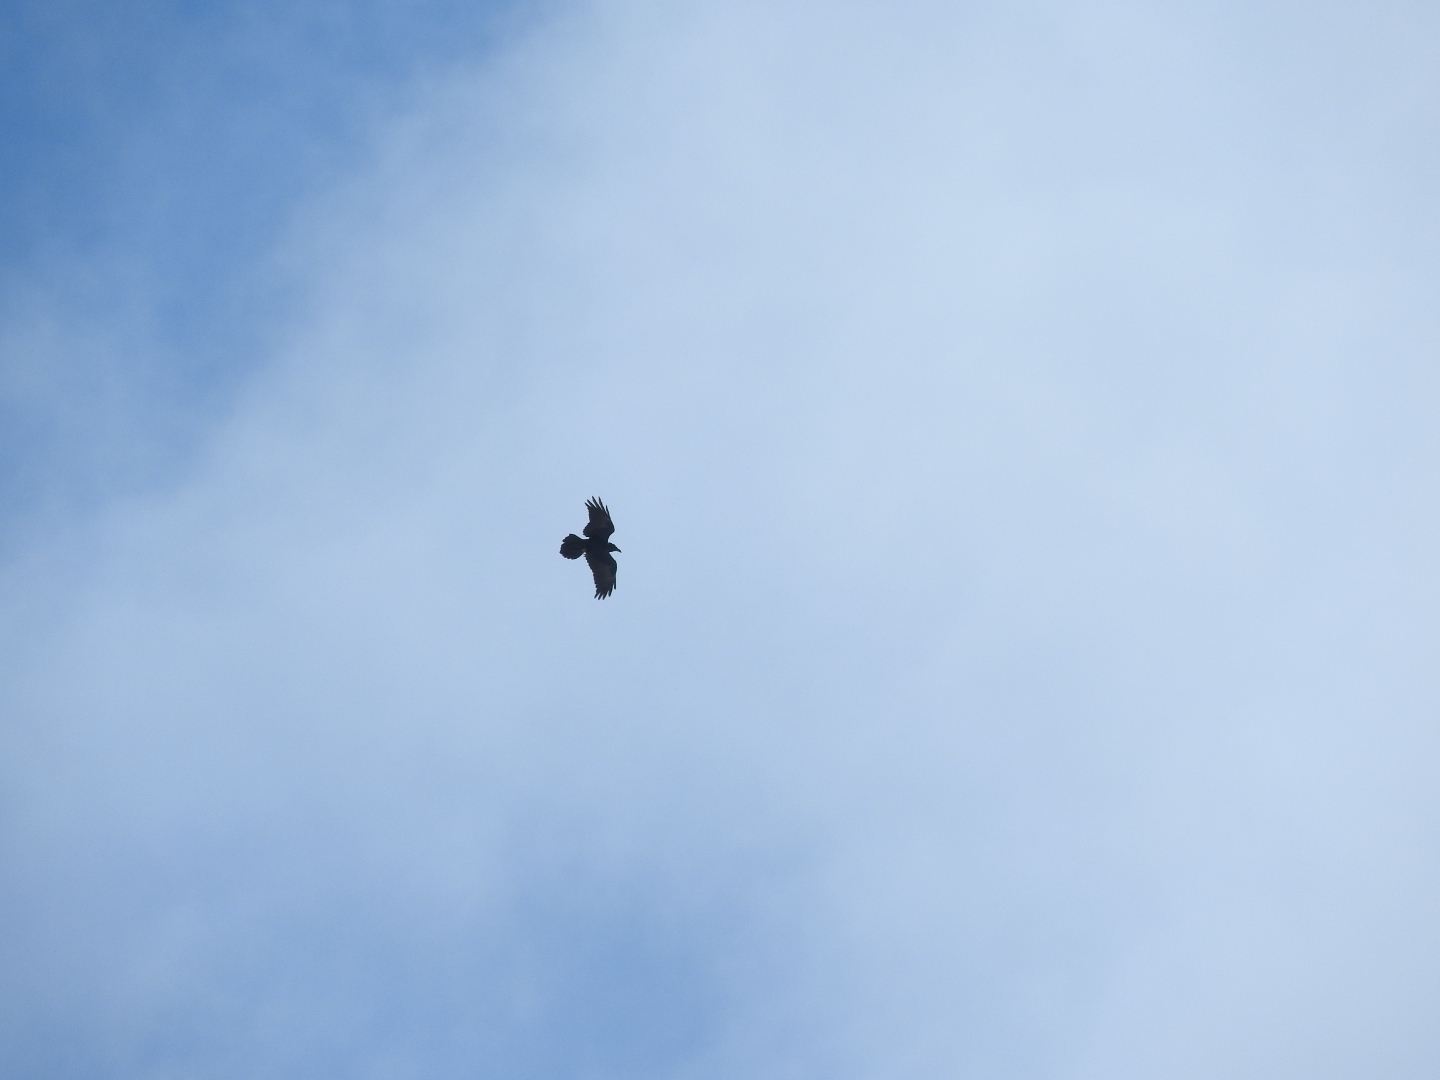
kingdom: Animalia
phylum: Chordata
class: Aves
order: Passeriformes
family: Corvidae
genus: Corvus
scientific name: Corvus corax
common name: Common raven
